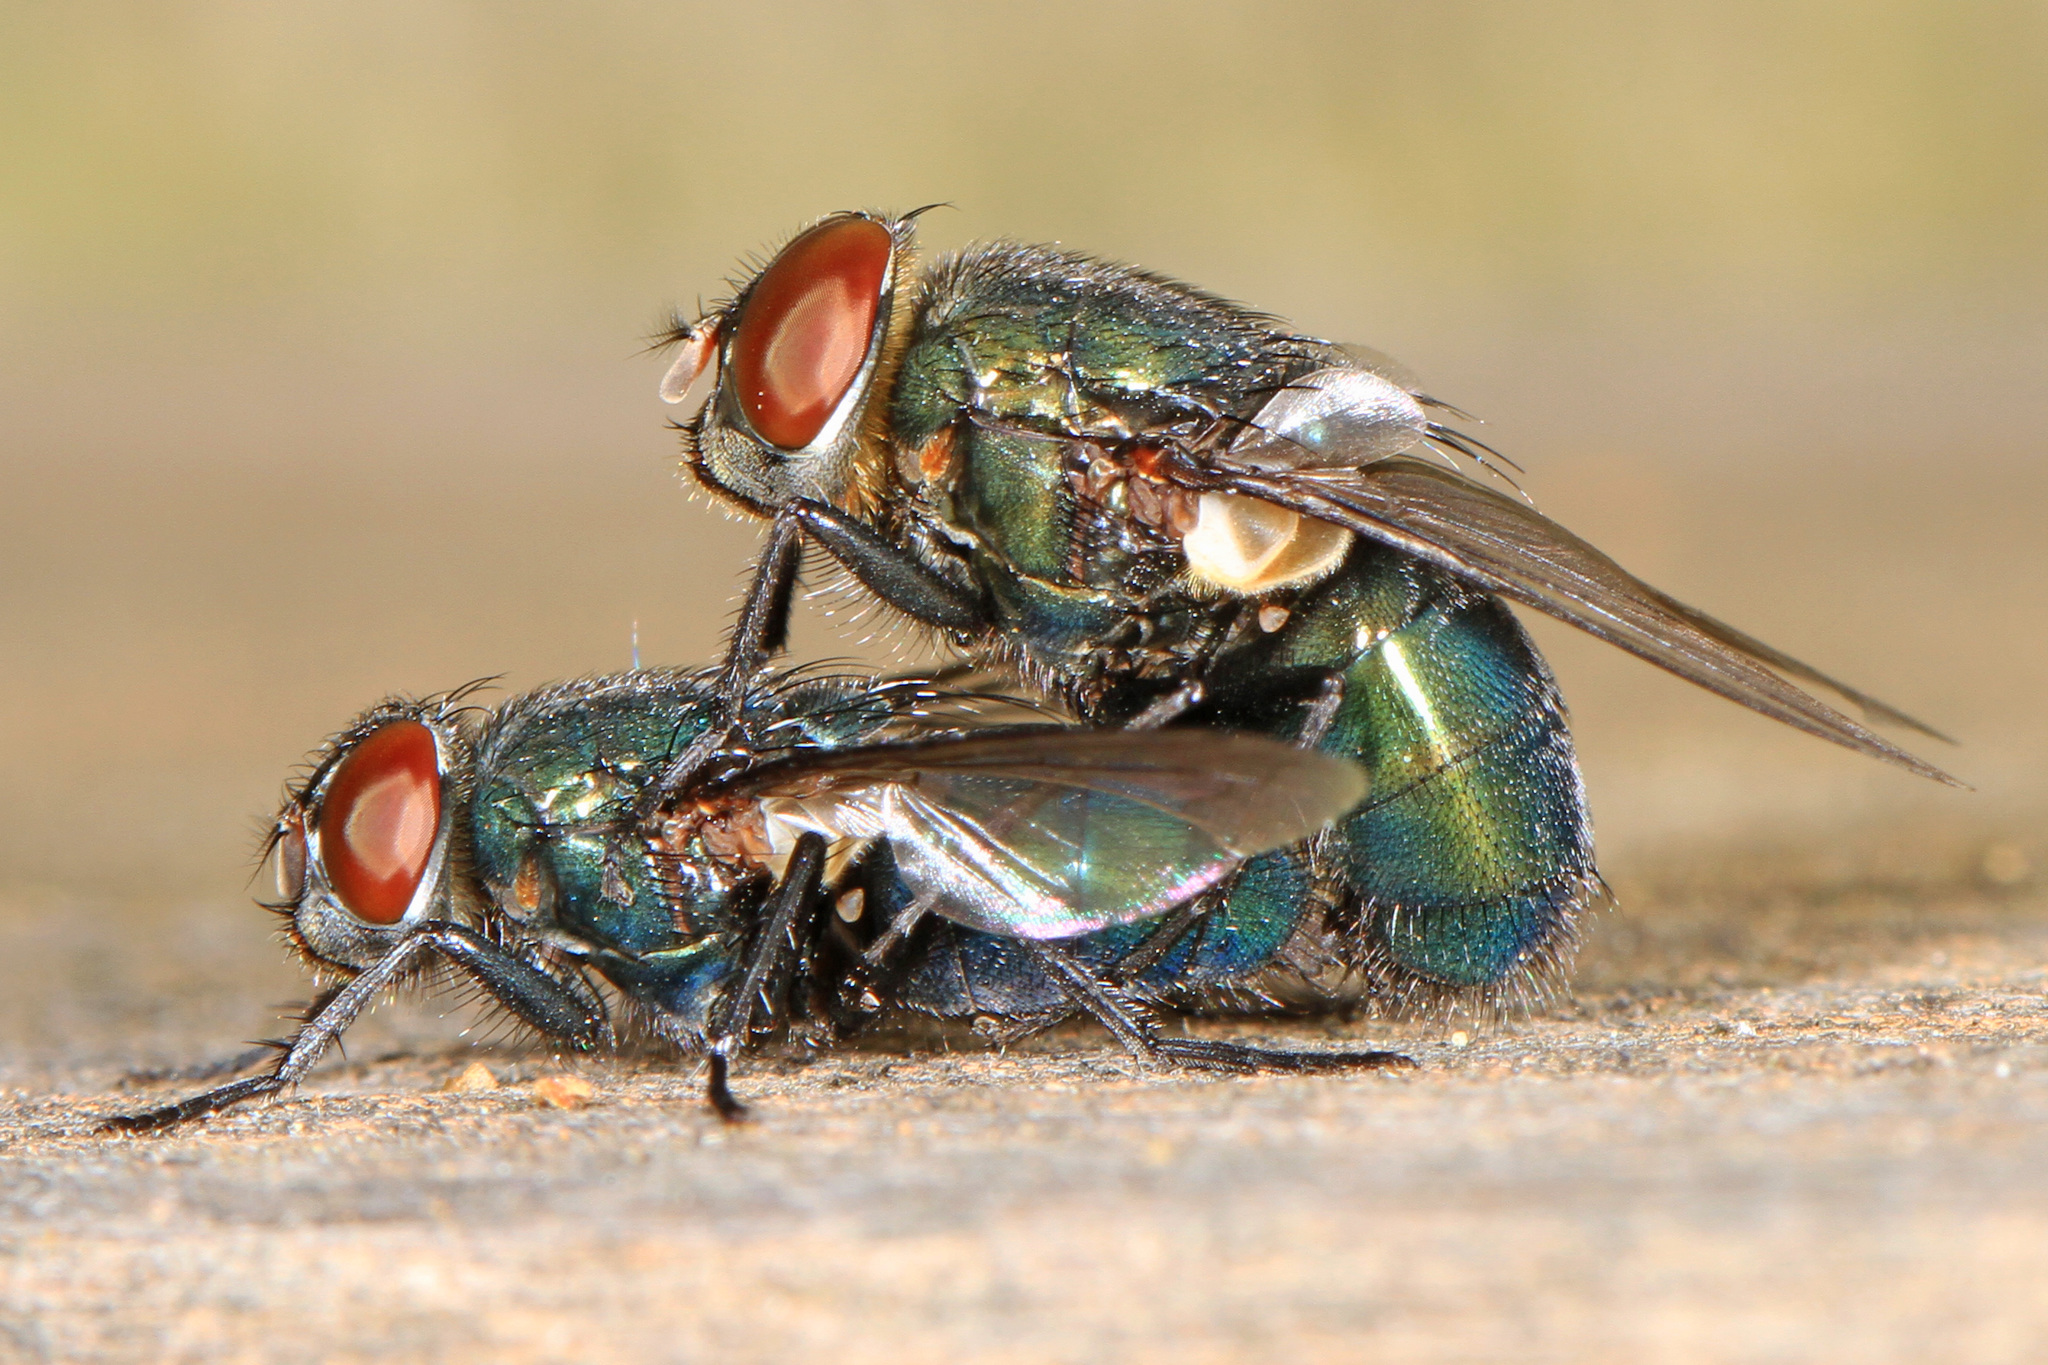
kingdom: Animalia
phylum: Arthropoda
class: Insecta
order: Diptera
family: Calliphoridae
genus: Phormia
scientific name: Phormia regina
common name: Black blow fly
